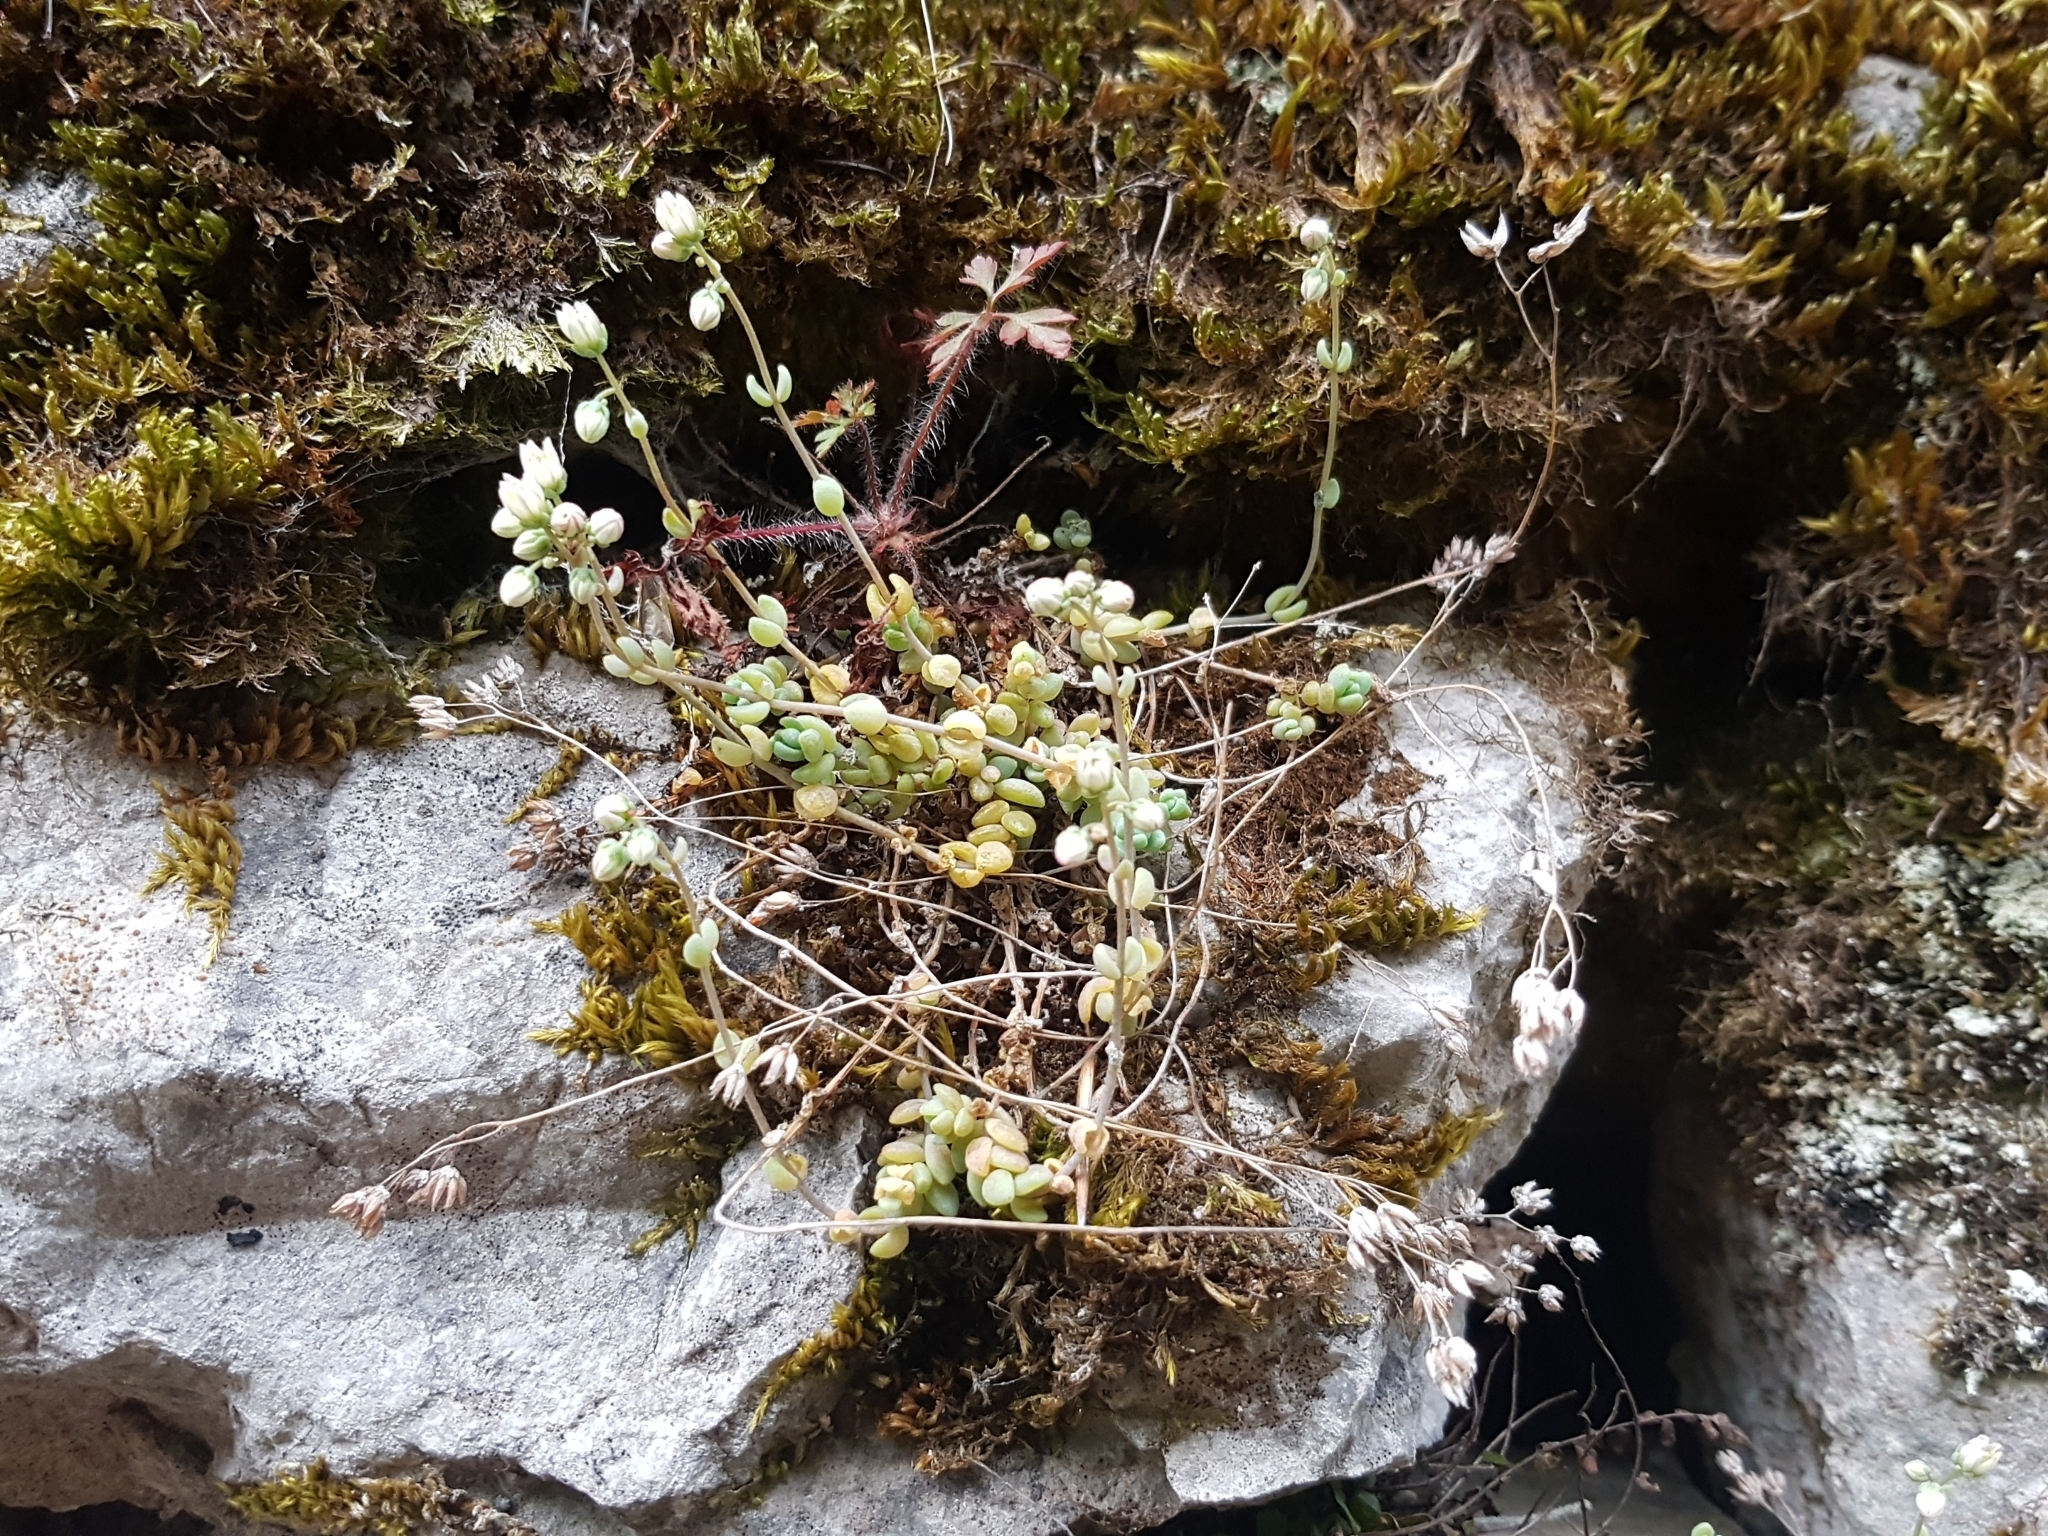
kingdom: Plantae
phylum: Tracheophyta
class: Magnoliopsida
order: Saxifragales
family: Crassulaceae
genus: Sedum
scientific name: Sedum dasyphyllum
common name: Thick-leaf stonecrop
